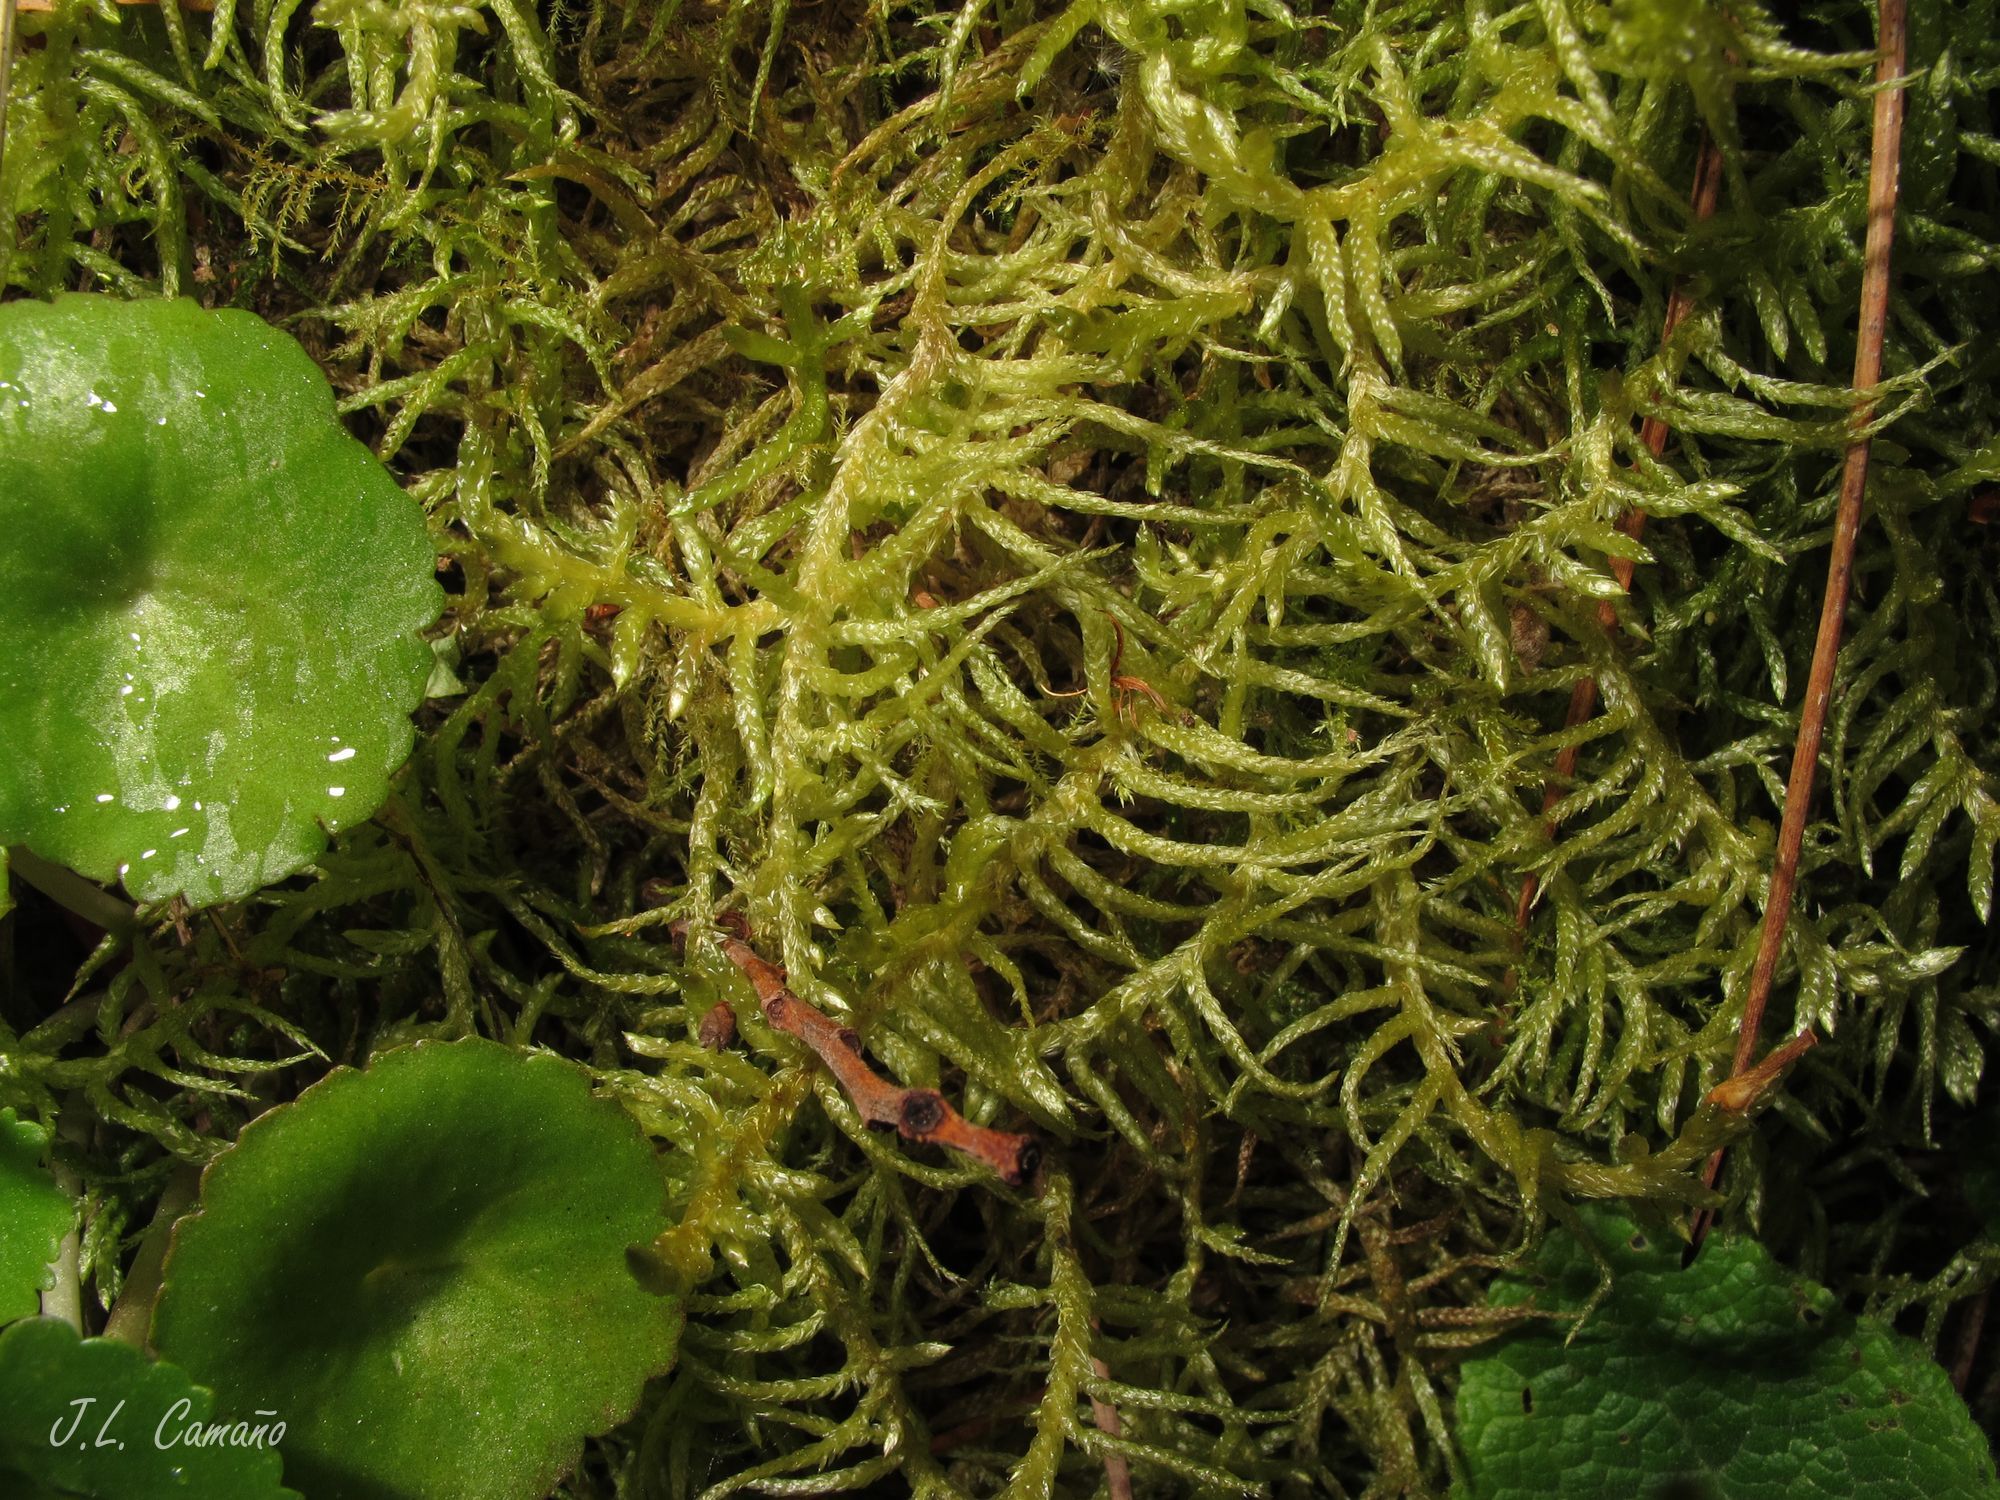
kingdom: Plantae
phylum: Bryophyta
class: Bryopsida
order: Hypnales
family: Brachytheciaceae
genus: Pseudoscleropodium
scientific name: Pseudoscleropodium purum
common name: Neat feather-moss
